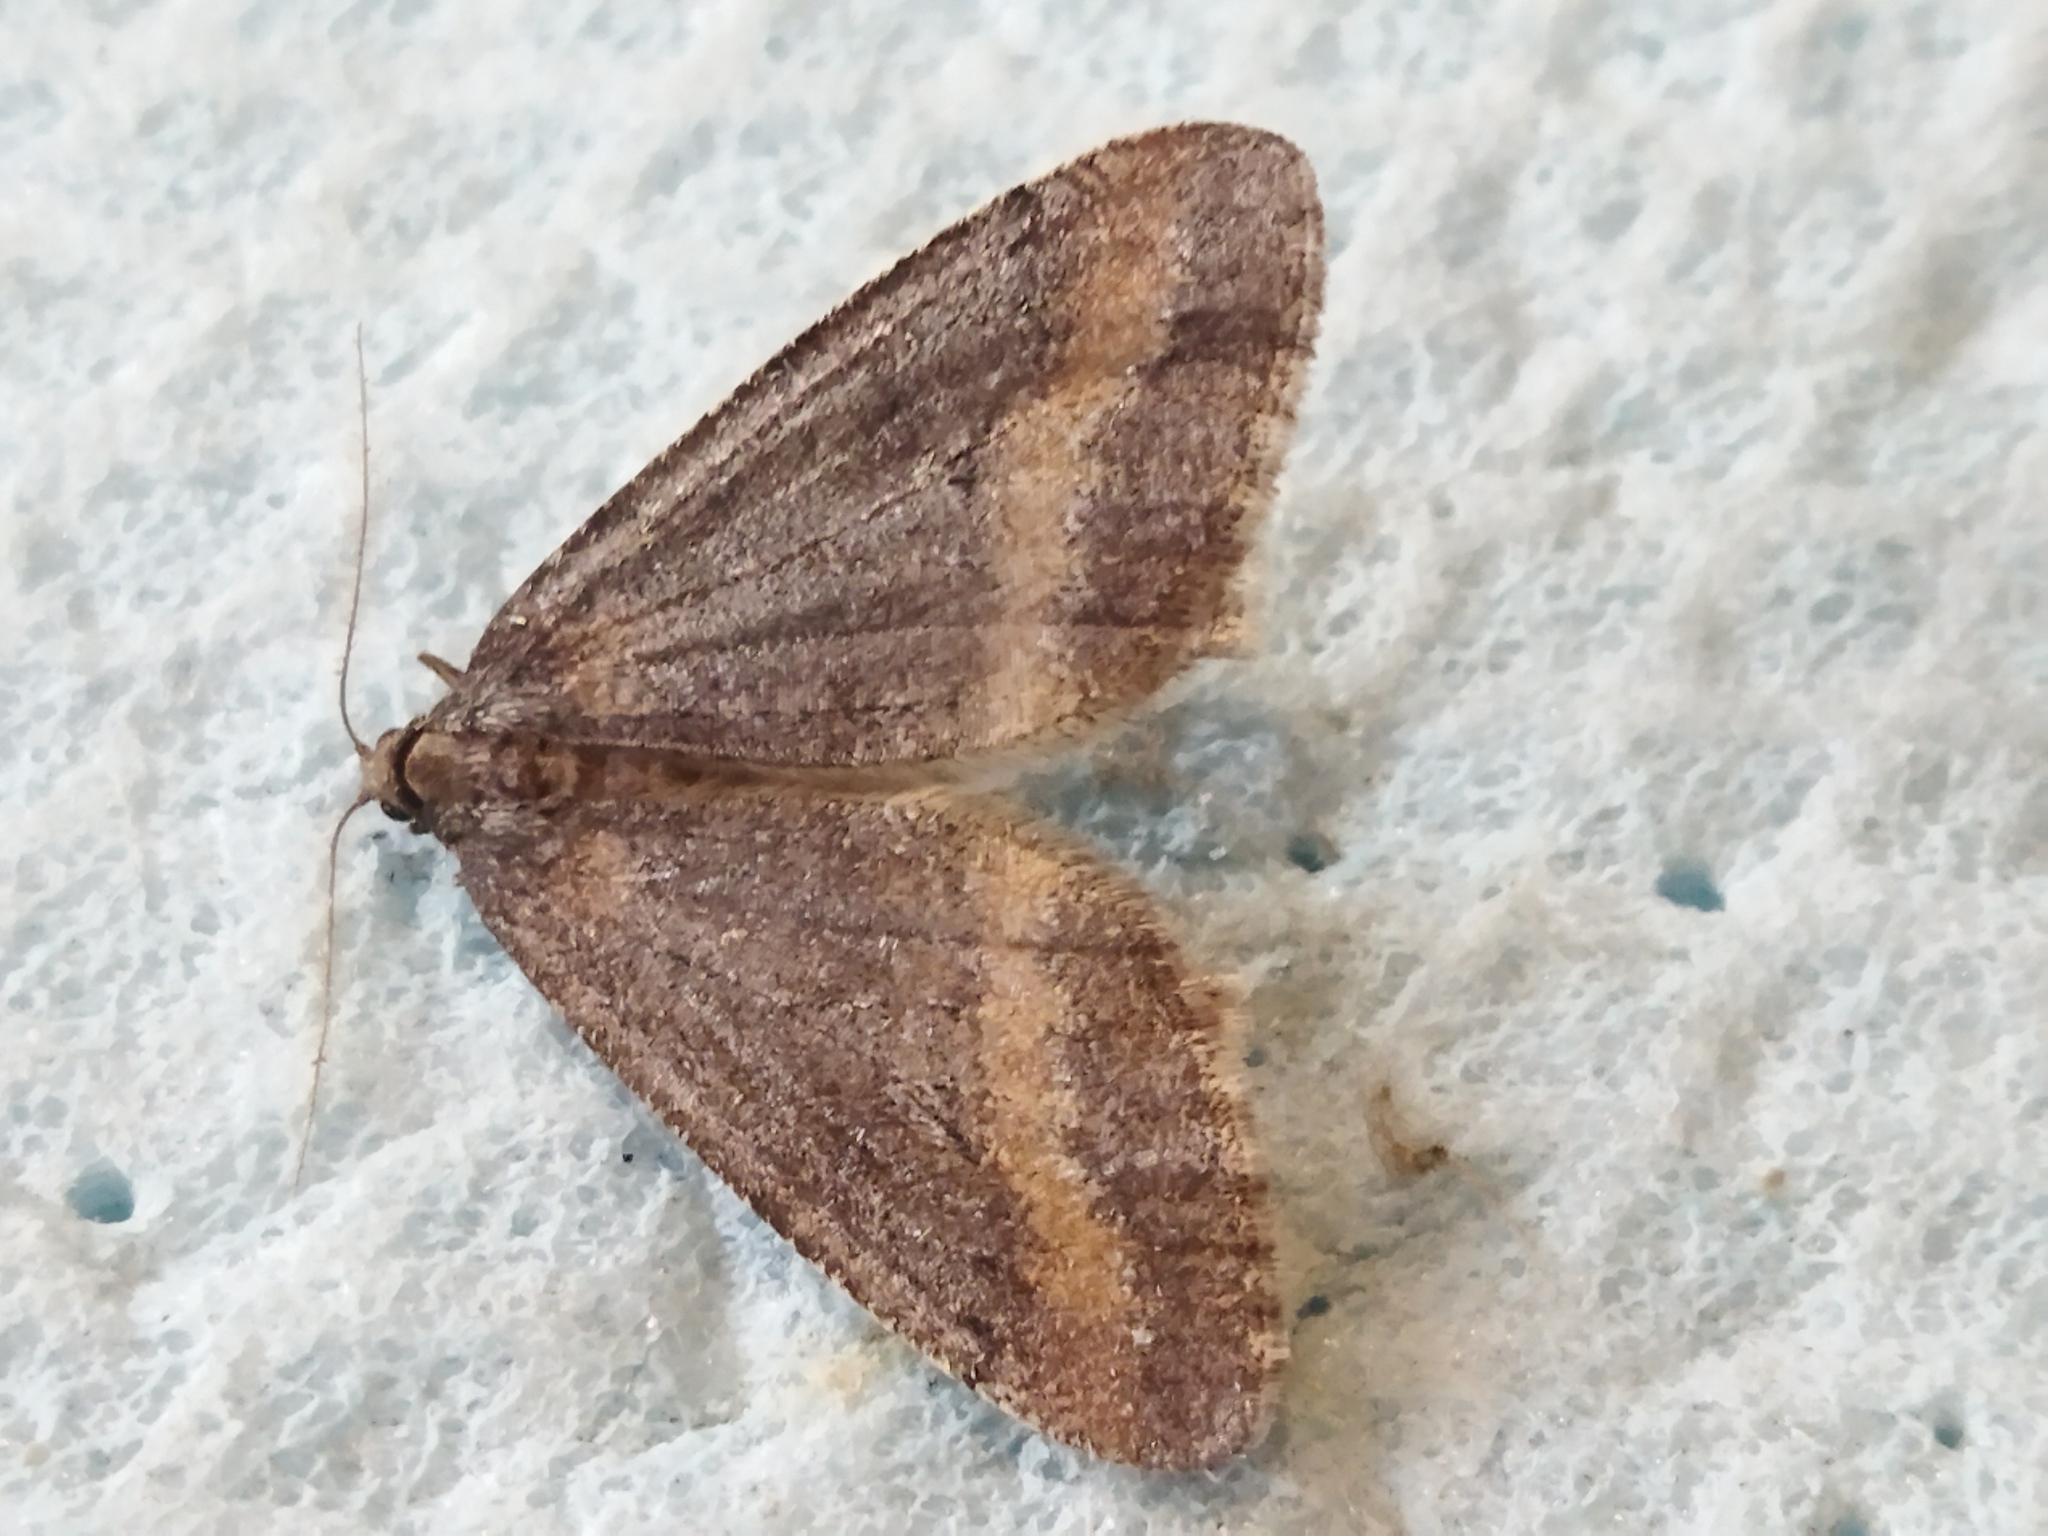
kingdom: Animalia
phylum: Arthropoda
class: Insecta
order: Lepidoptera
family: Geometridae
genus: Erannis
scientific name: Erannis declinans
